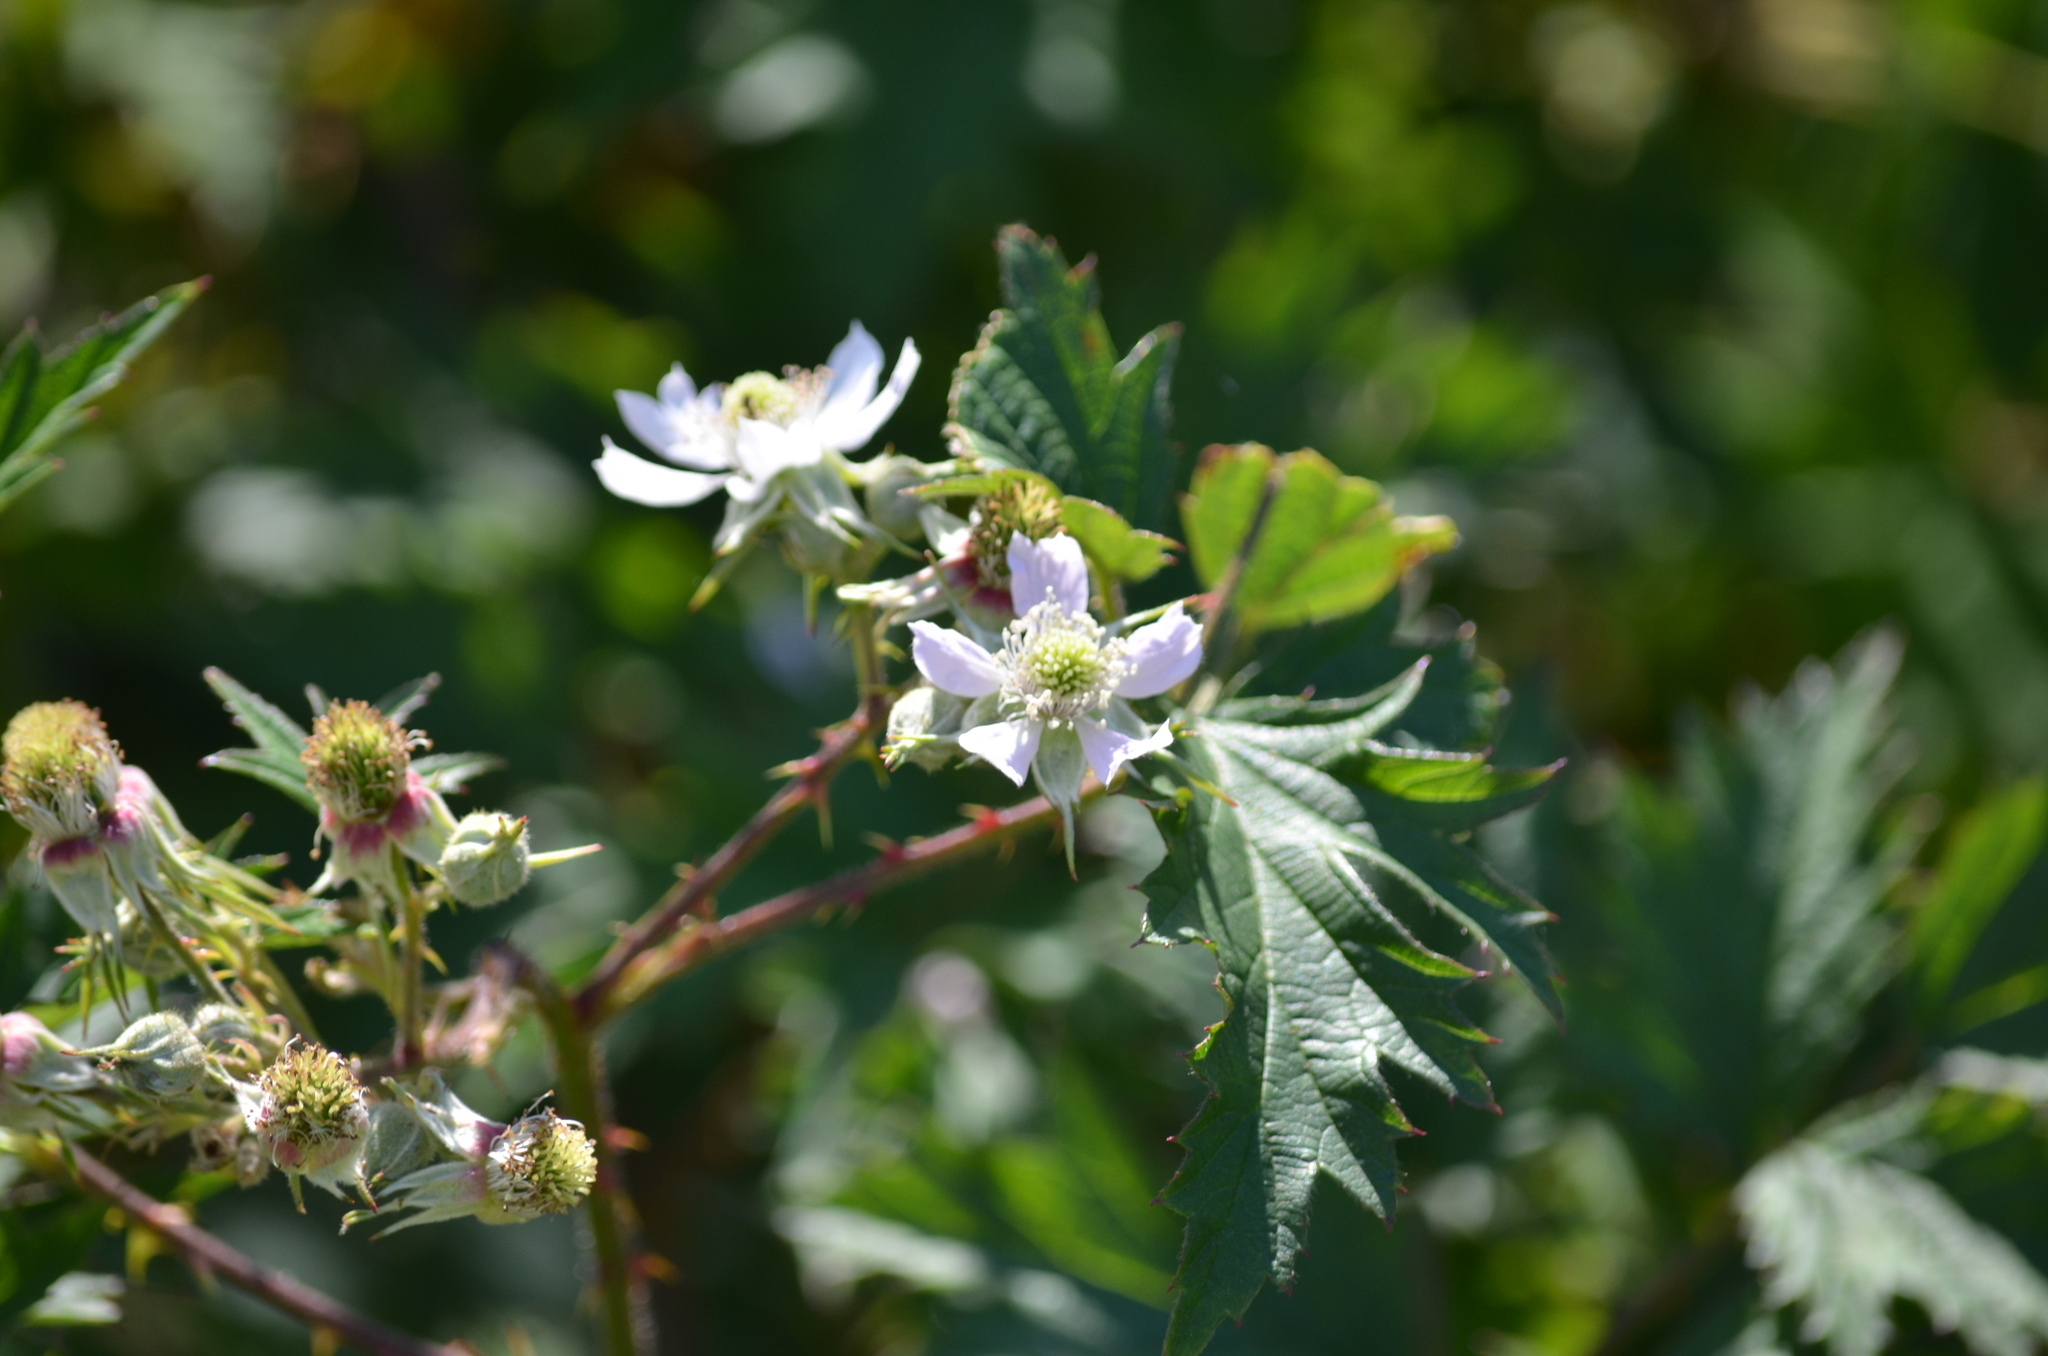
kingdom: Plantae
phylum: Tracheophyta
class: Magnoliopsida
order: Rosales
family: Rosaceae
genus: Rubus
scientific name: Rubus laciniatus
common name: Evergreen blackberry
